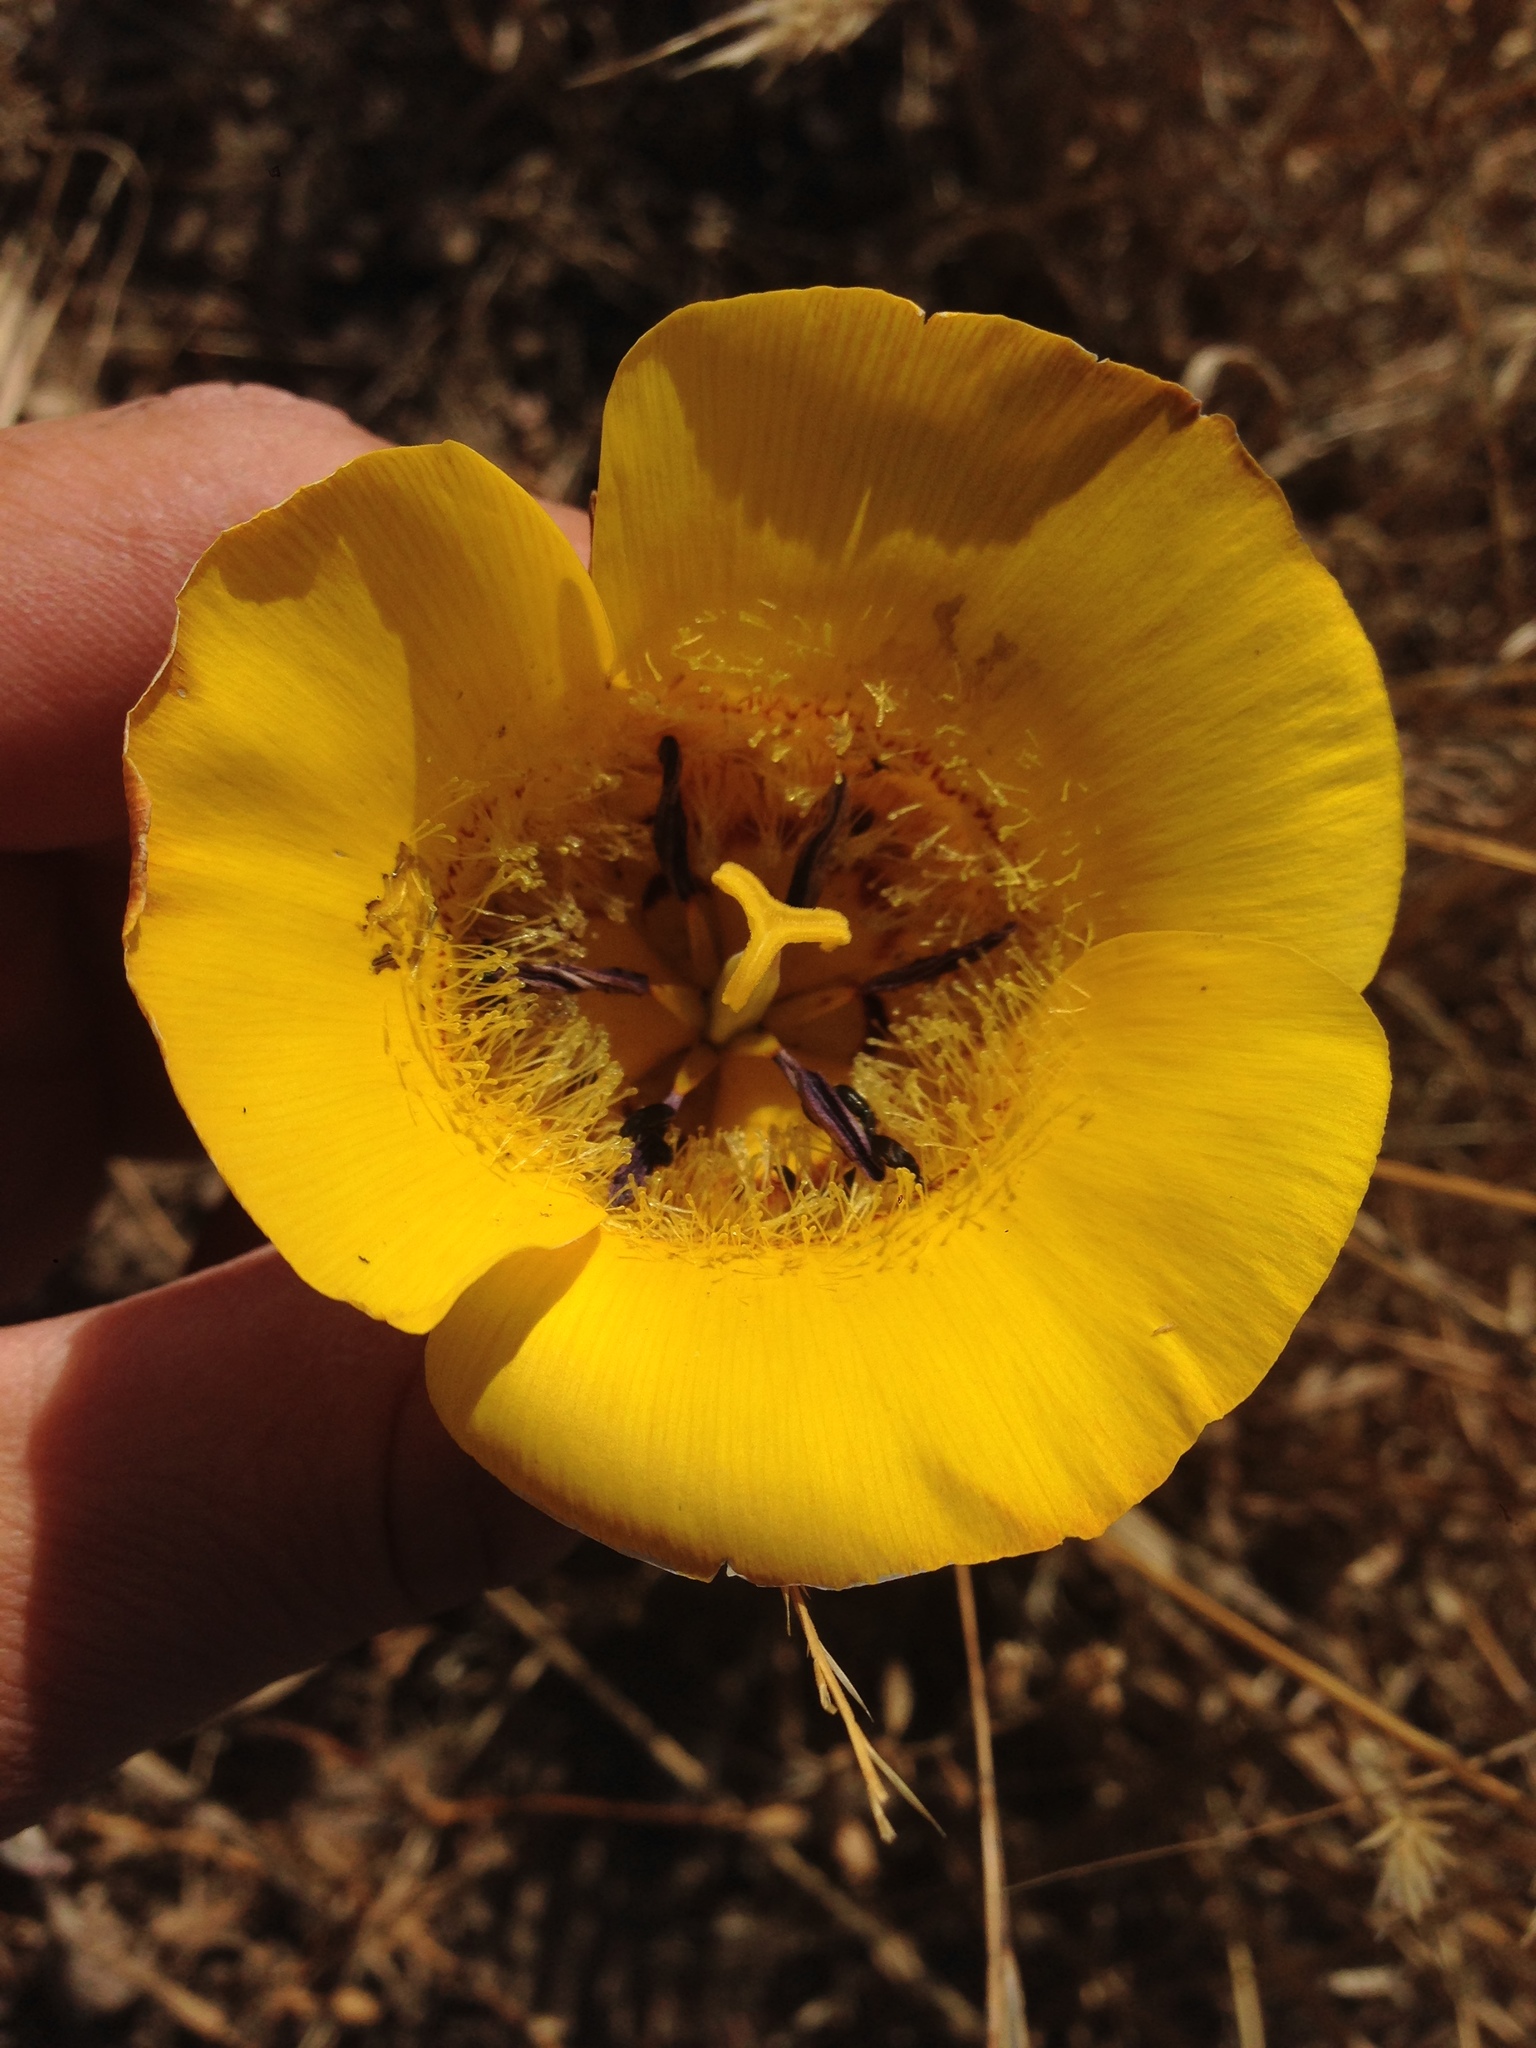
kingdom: Plantae
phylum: Tracheophyta
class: Liliopsida
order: Liliales
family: Liliaceae
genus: Calochortus
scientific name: Calochortus clavatus
